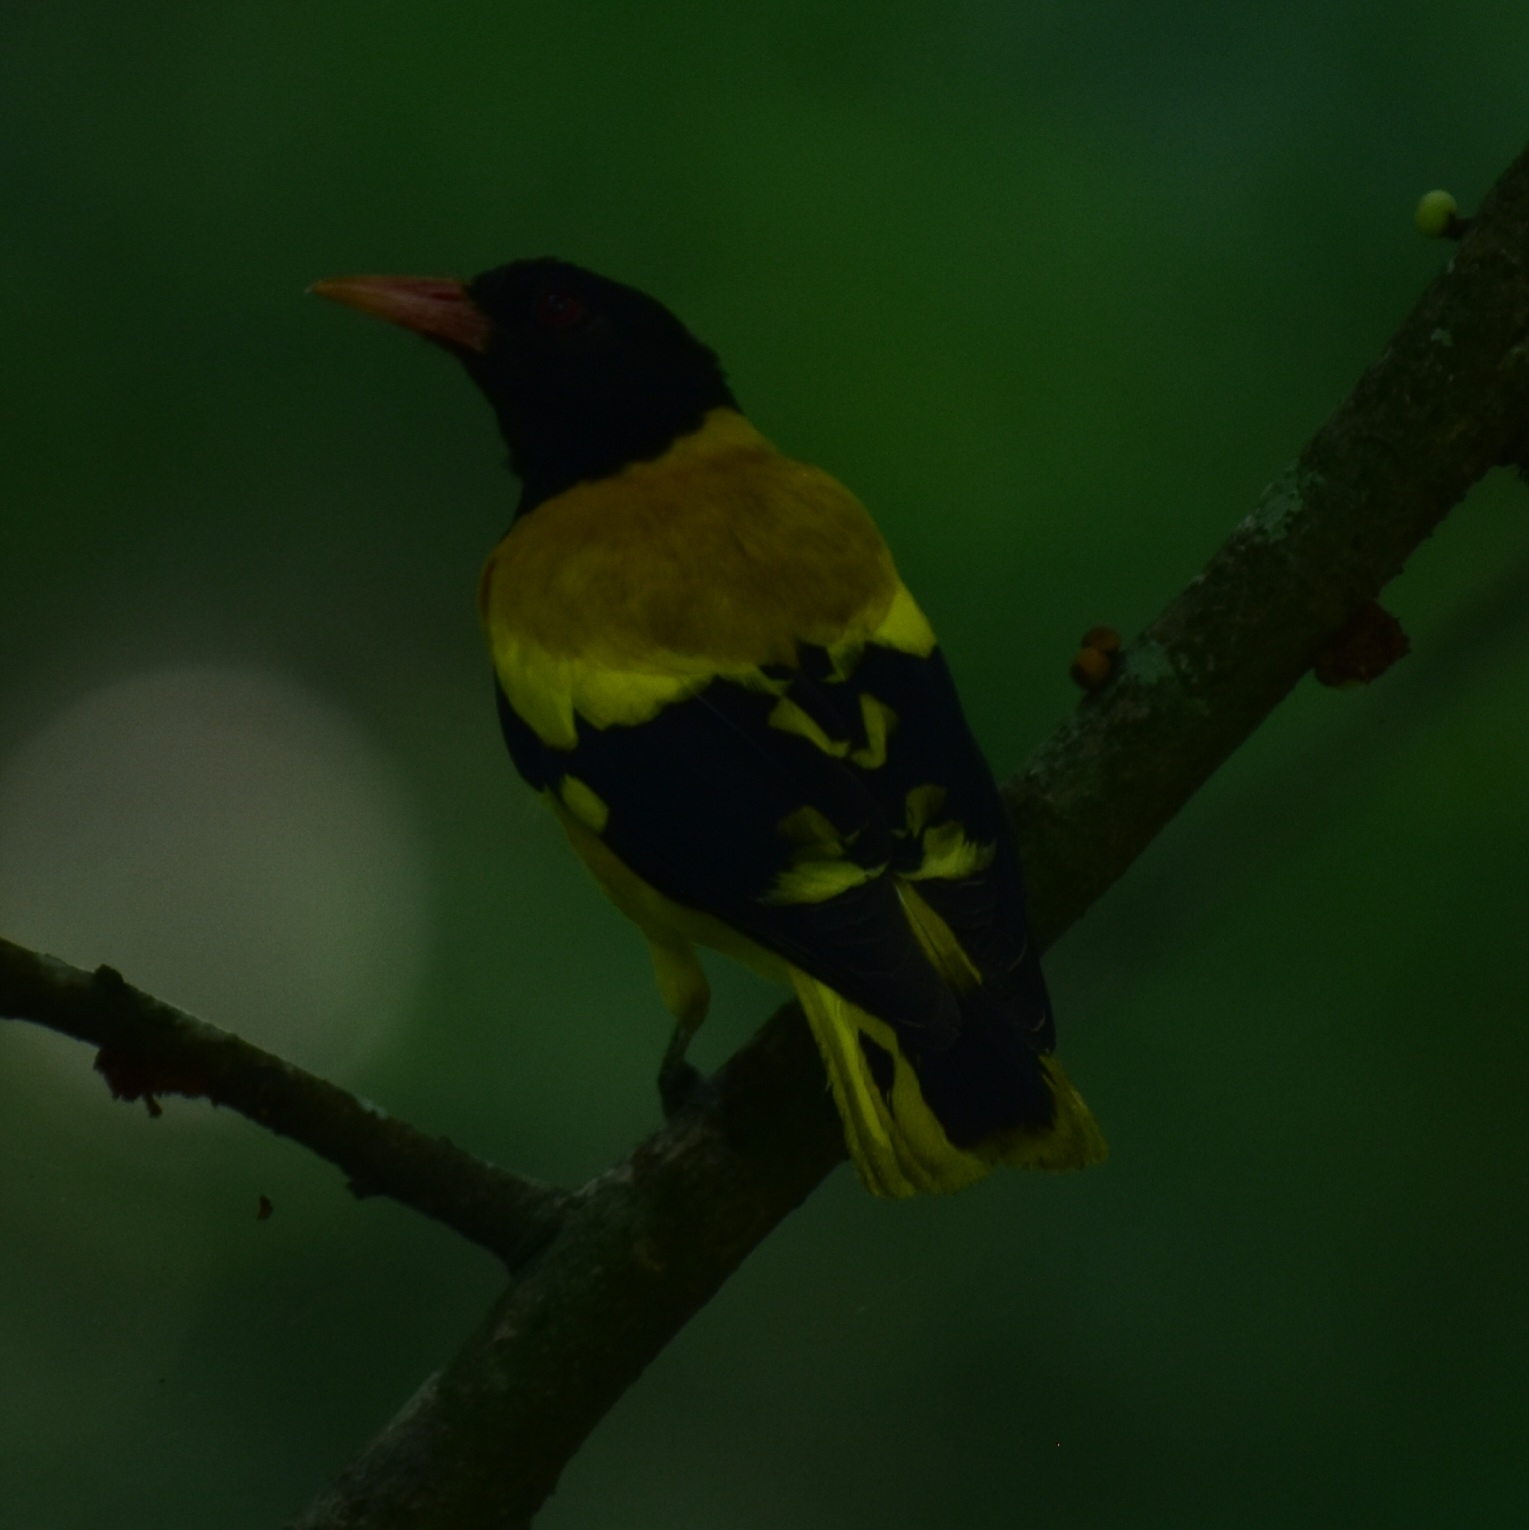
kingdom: Animalia
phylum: Chordata
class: Aves
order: Passeriformes
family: Oriolidae
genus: Oriolus
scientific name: Oriolus xanthornus
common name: Black-hooded oriole
